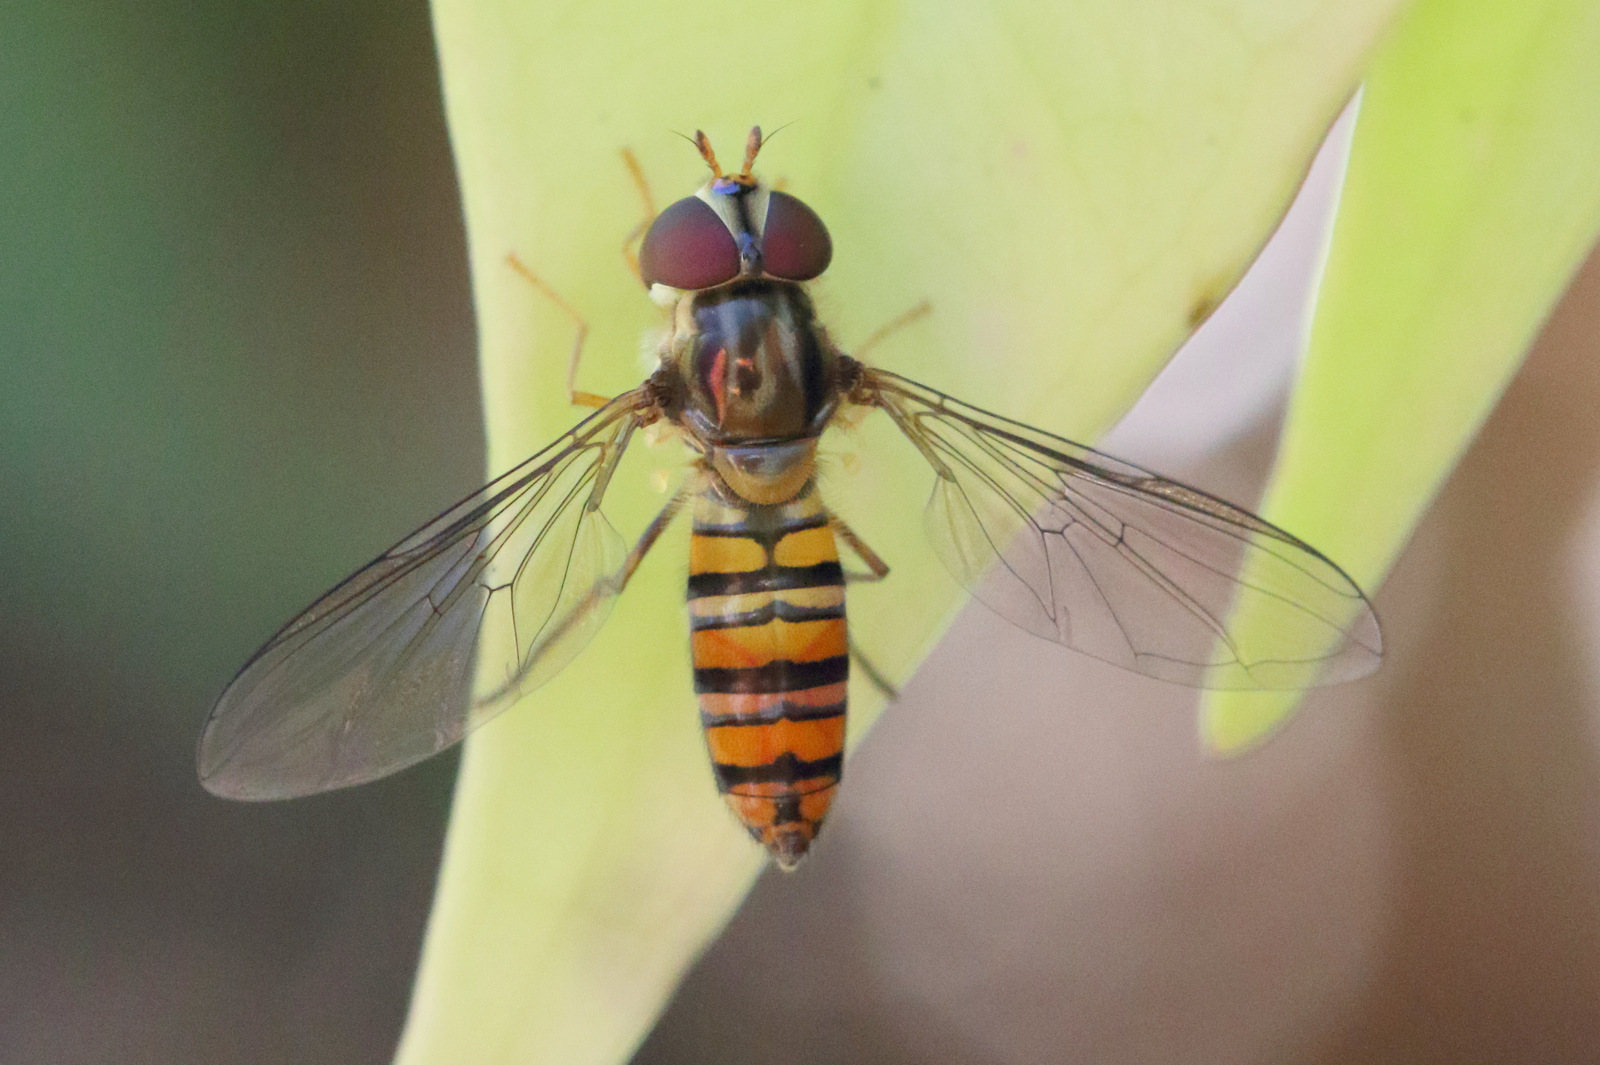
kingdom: Animalia
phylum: Arthropoda
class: Insecta
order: Diptera
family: Syrphidae
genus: Episyrphus
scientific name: Episyrphus viridaureus
